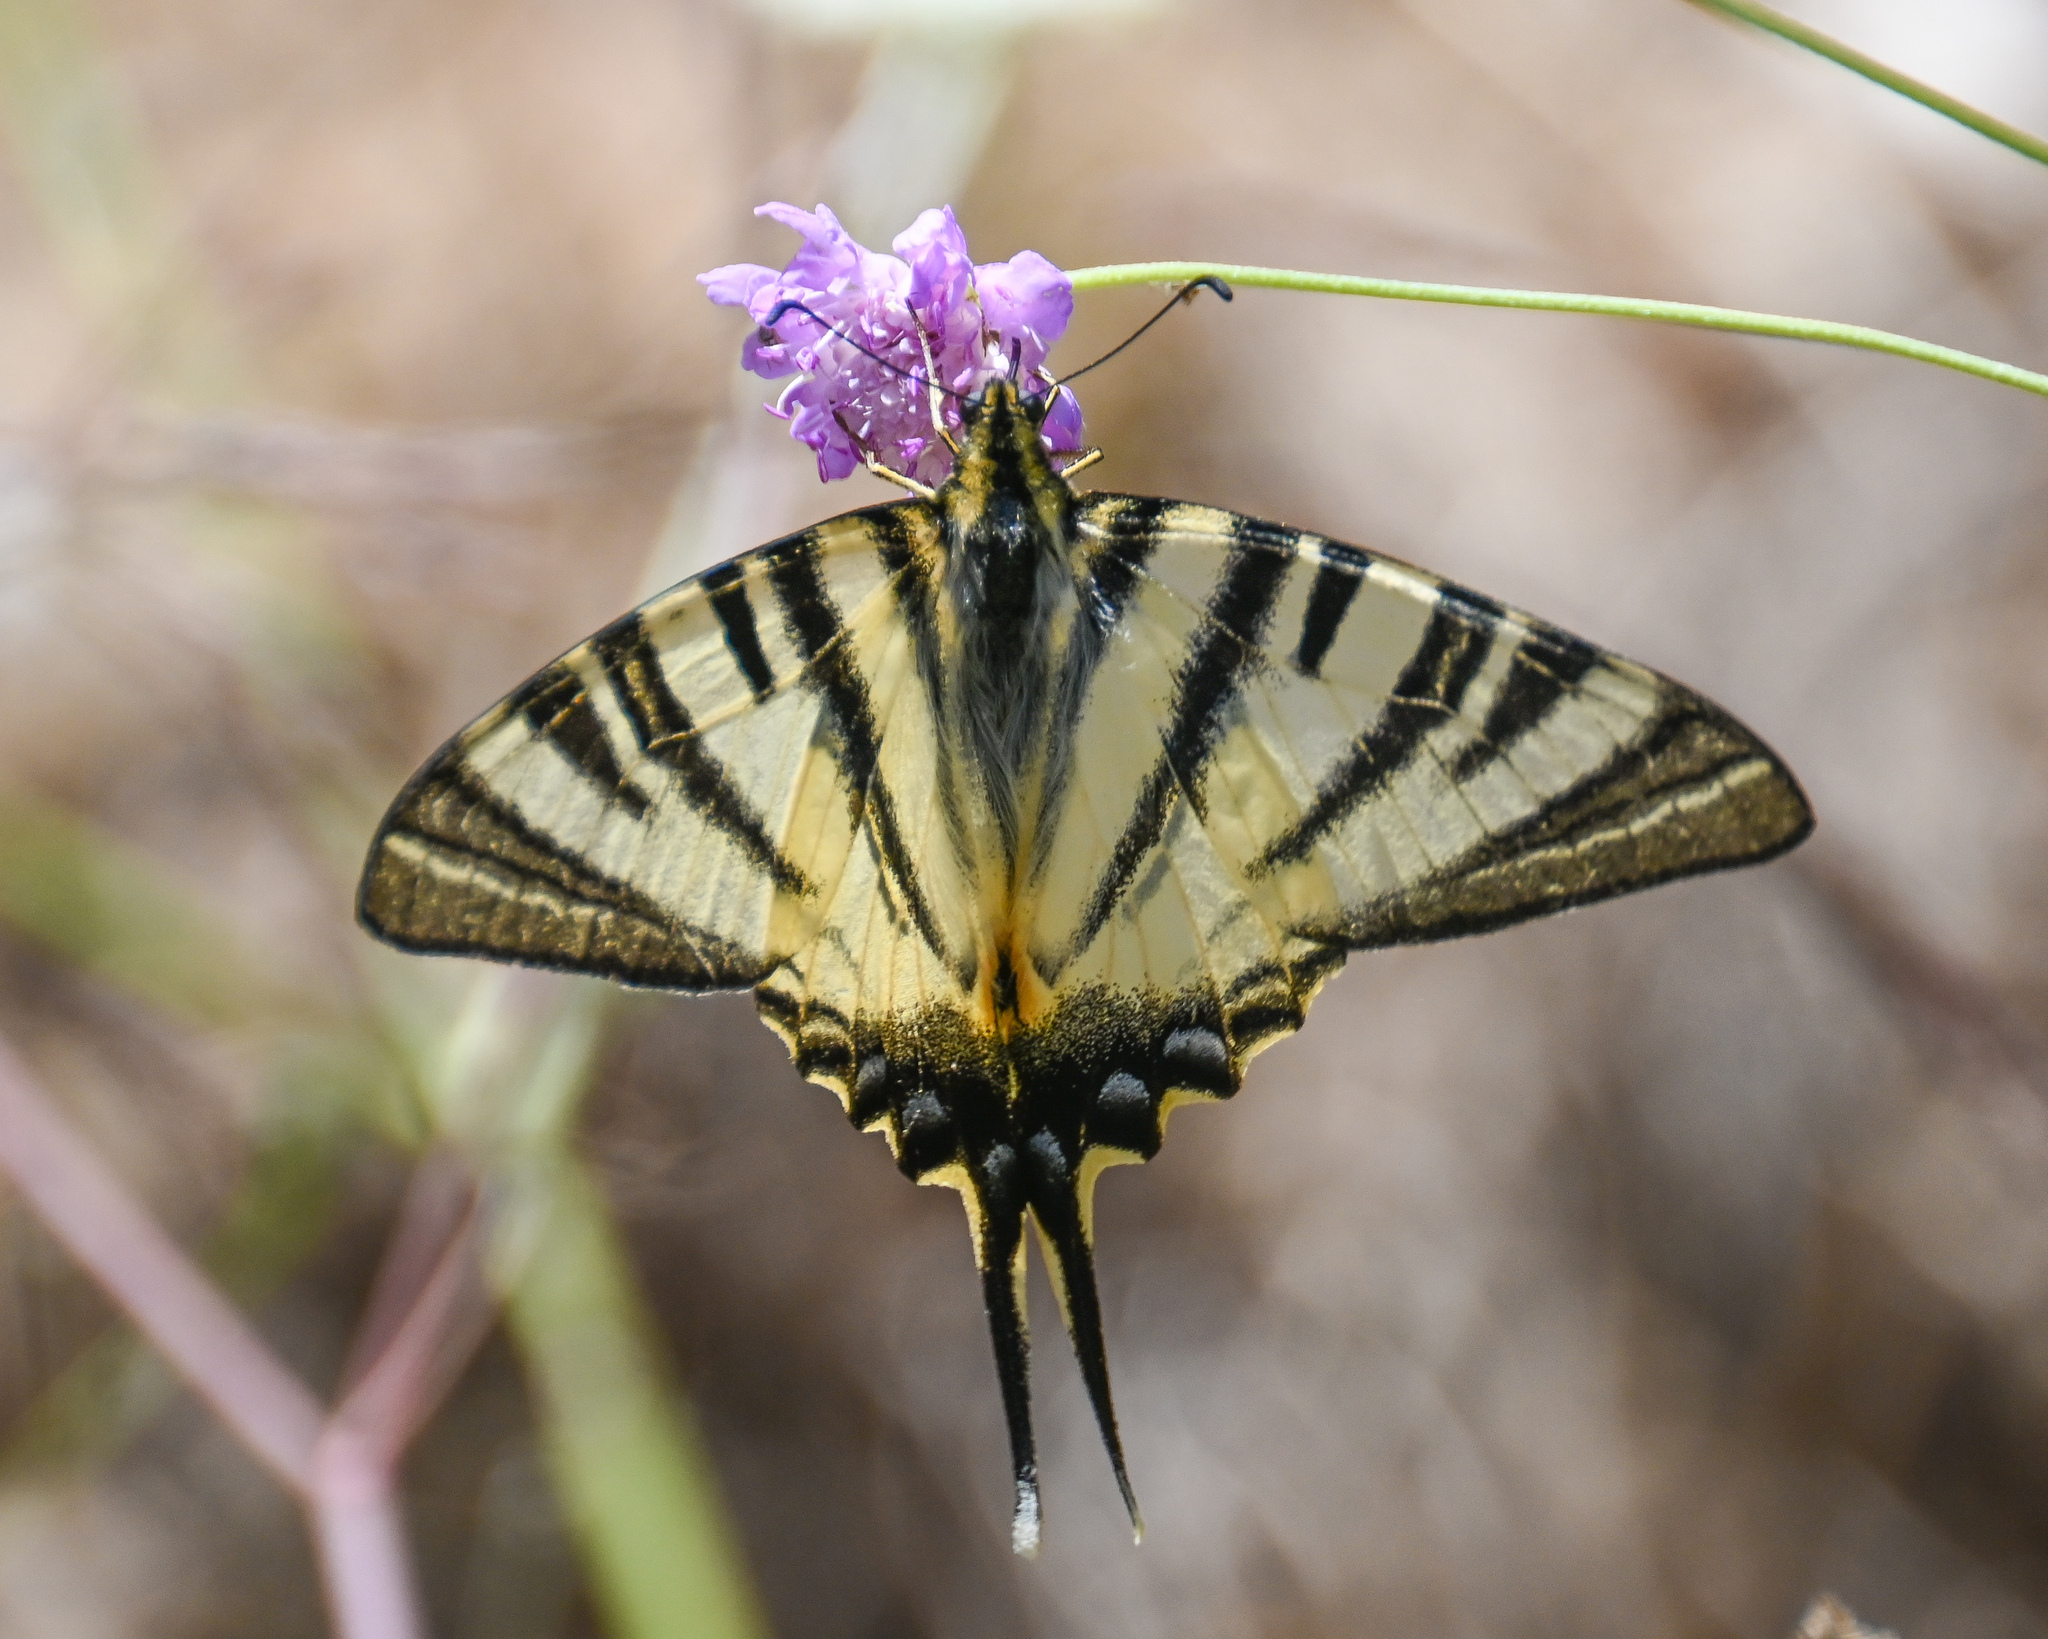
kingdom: Animalia
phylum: Arthropoda
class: Insecta
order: Lepidoptera
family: Papilionidae
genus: Iphiclides
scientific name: Iphiclides podalirius
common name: Scarce swallowtail
